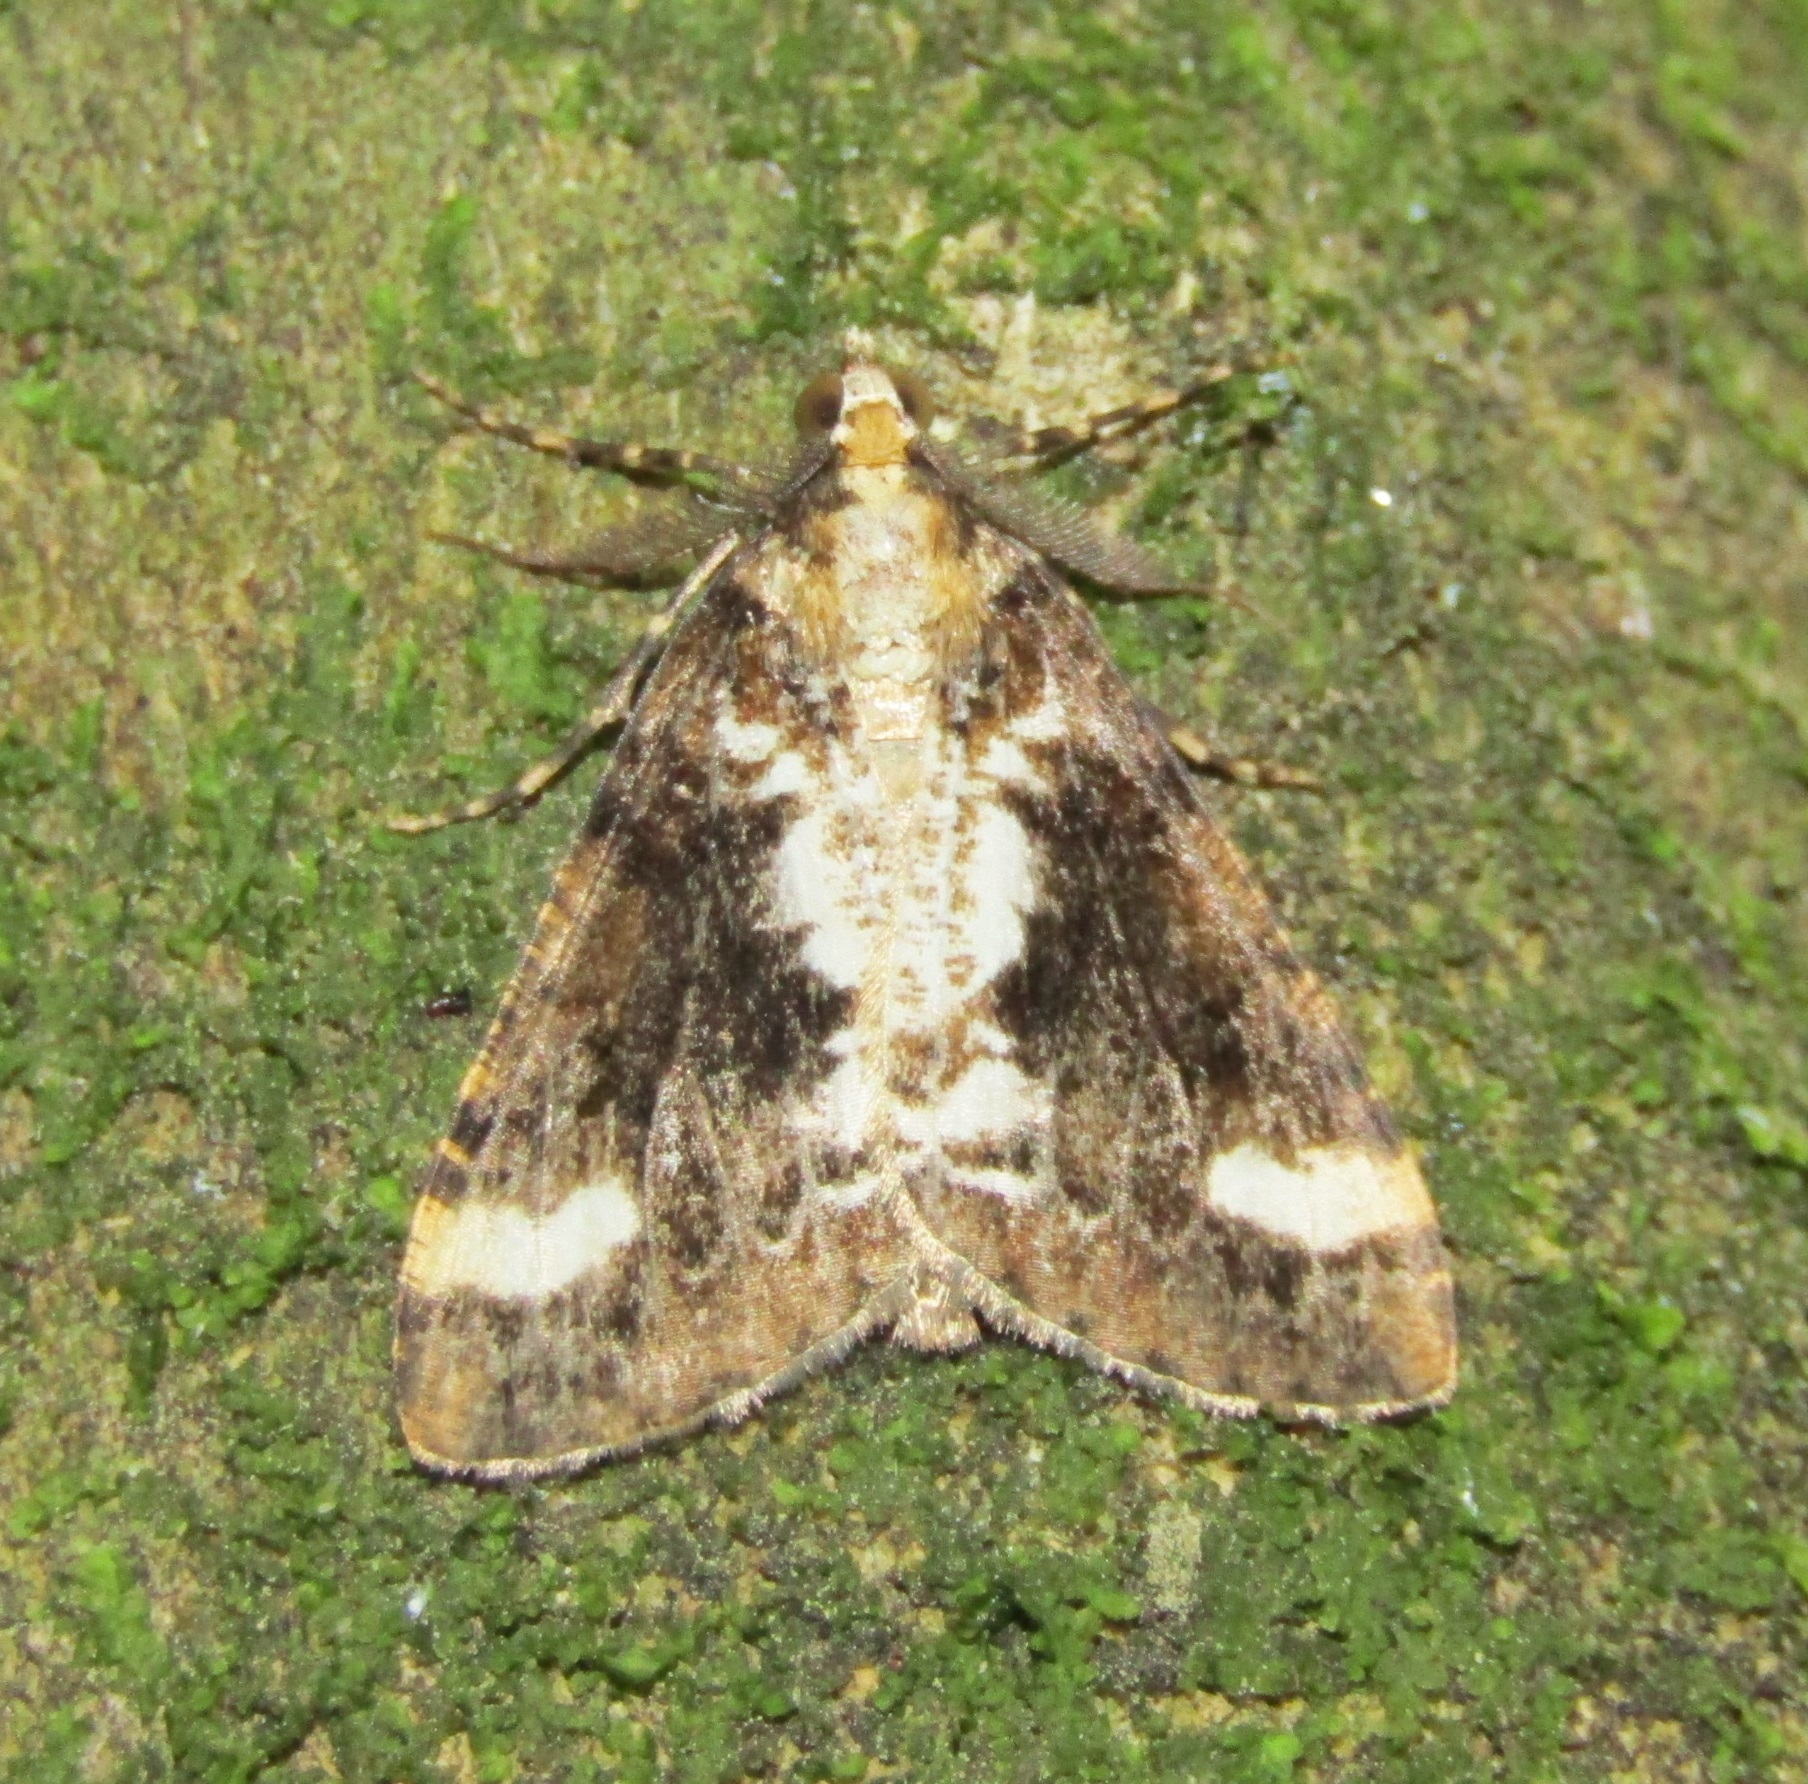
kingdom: Animalia
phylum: Arthropoda
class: Insecta
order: Lepidoptera
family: Geometridae
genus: Pseudocoremia
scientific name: Pseudocoremia leucelaea
